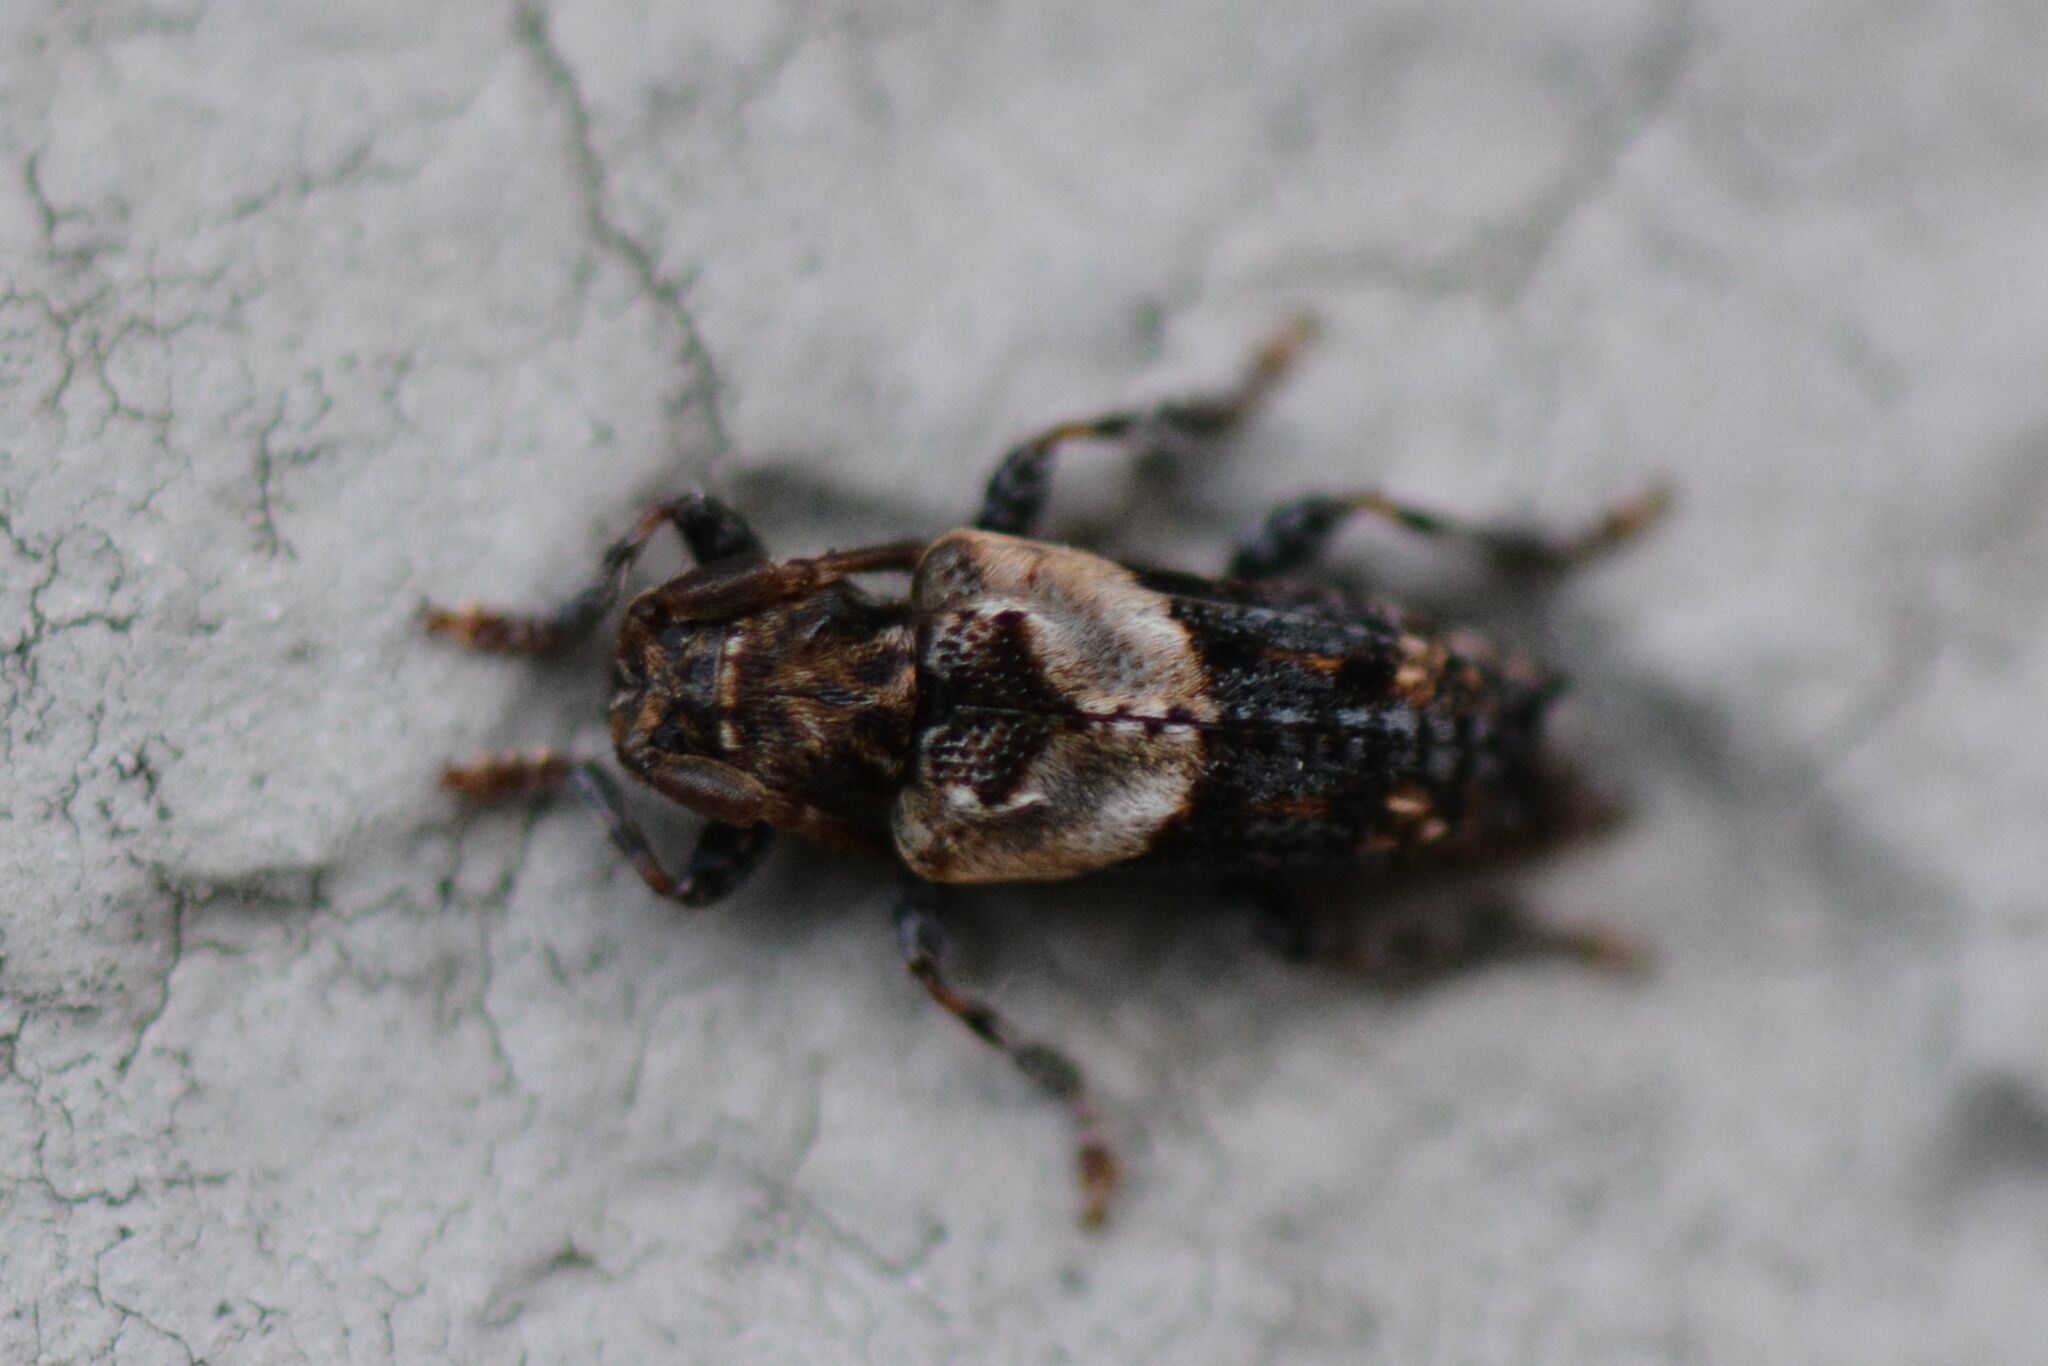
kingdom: Animalia
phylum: Arthropoda
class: Insecta
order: Coleoptera
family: Cerambycidae
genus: Pogonocherus
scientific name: Pogonocherus hispidus
